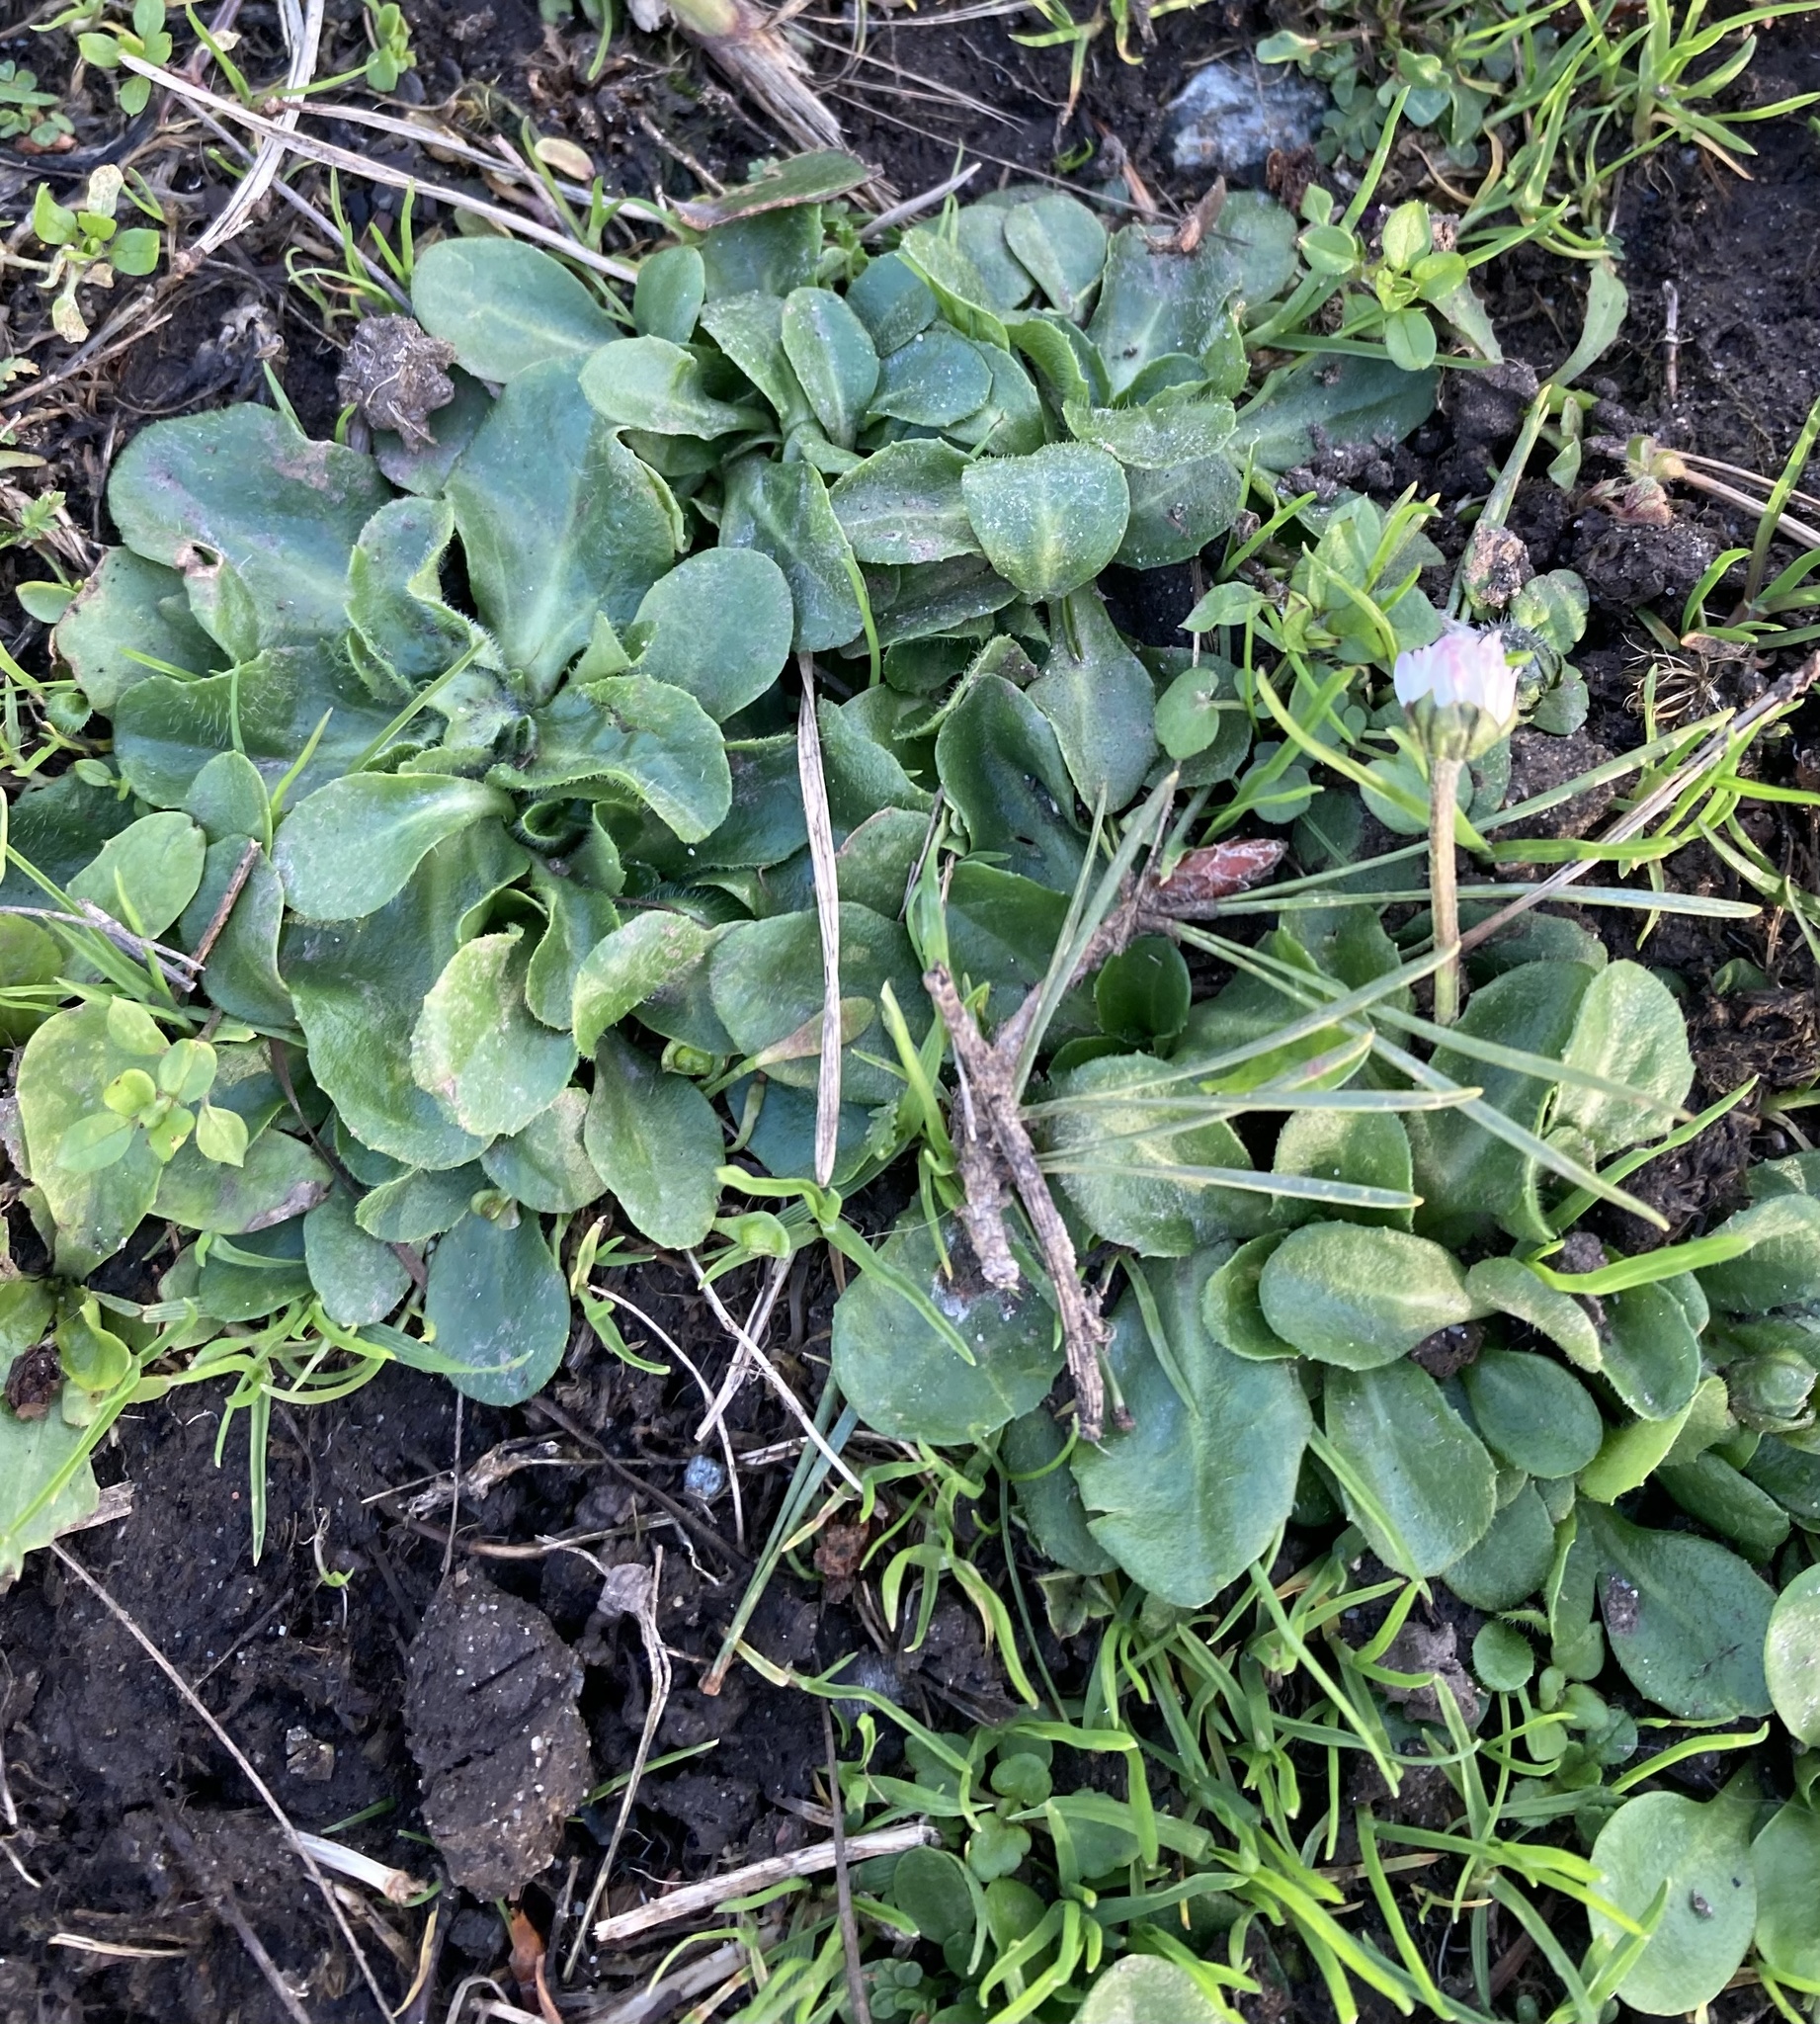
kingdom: Plantae
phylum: Tracheophyta
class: Magnoliopsida
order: Asterales
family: Asteraceae
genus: Bellis
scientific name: Bellis perennis
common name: Lawndaisy
